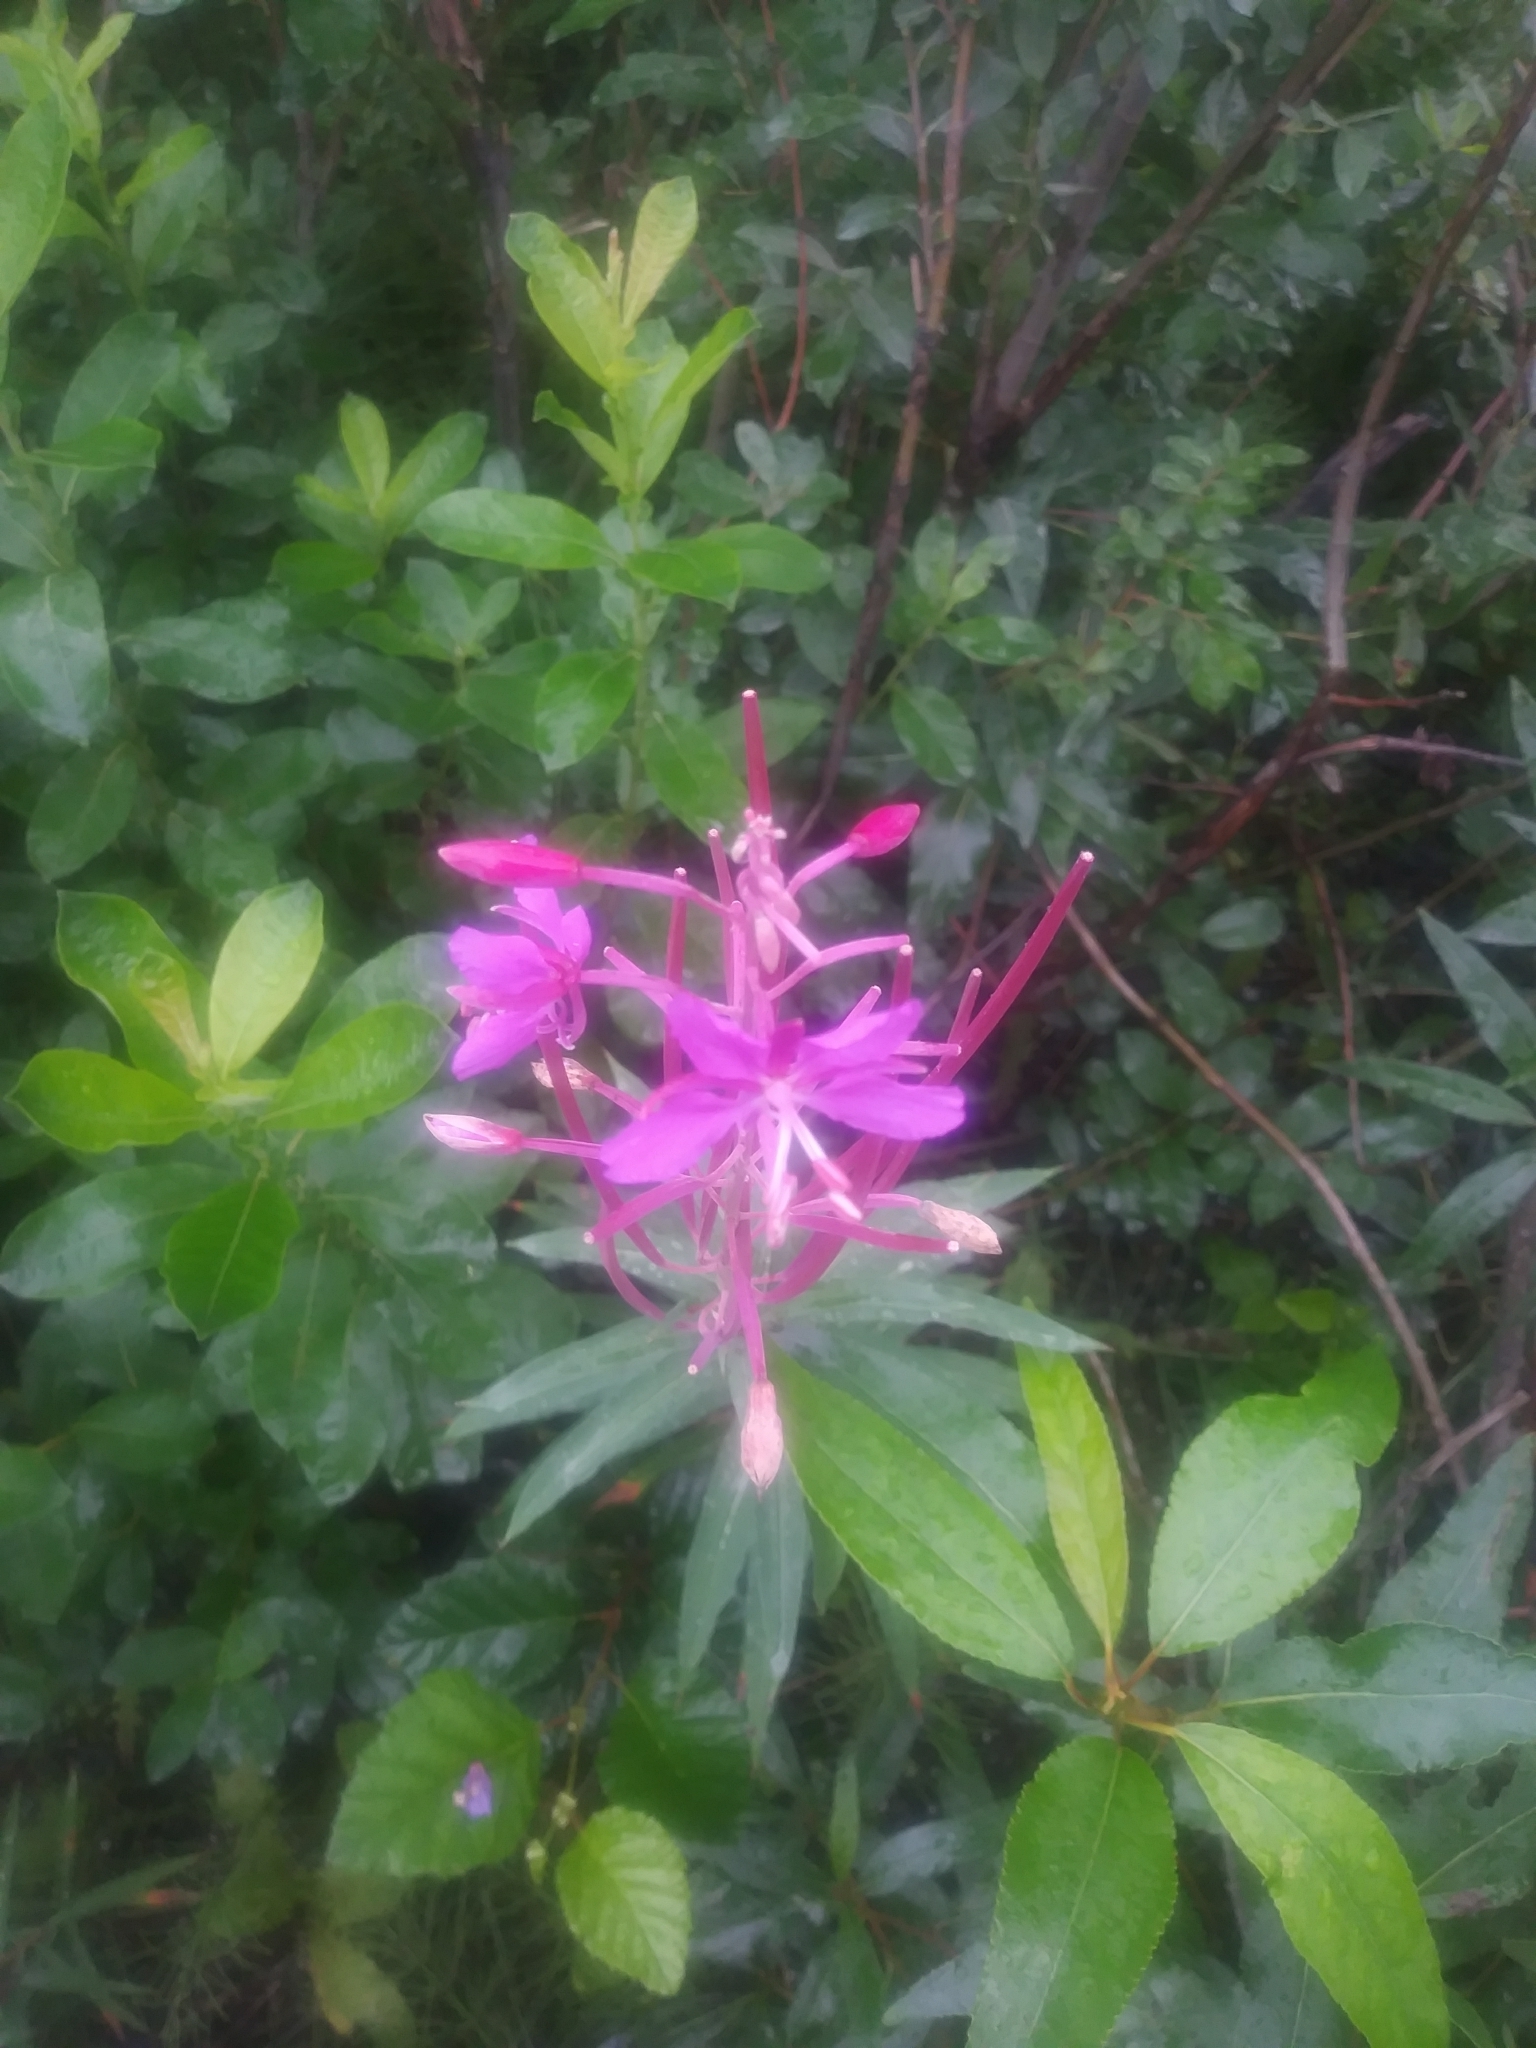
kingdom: Plantae
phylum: Tracheophyta
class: Magnoliopsida
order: Myrtales
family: Onagraceae
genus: Chamaenerion
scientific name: Chamaenerion latifolium
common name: Dwarf fireweed
